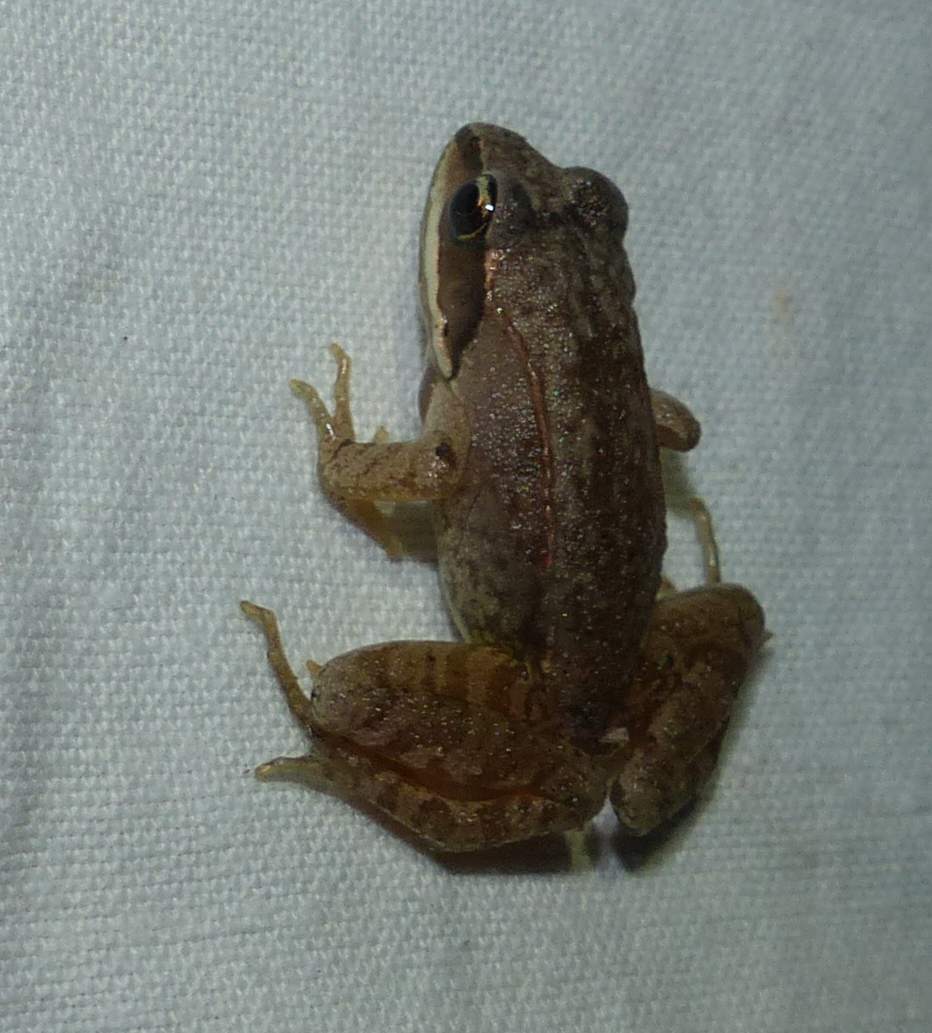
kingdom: Animalia
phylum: Chordata
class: Amphibia
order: Anura
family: Ranidae
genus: Lithobates
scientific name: Lithobates sylvaticus
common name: Wood frog
